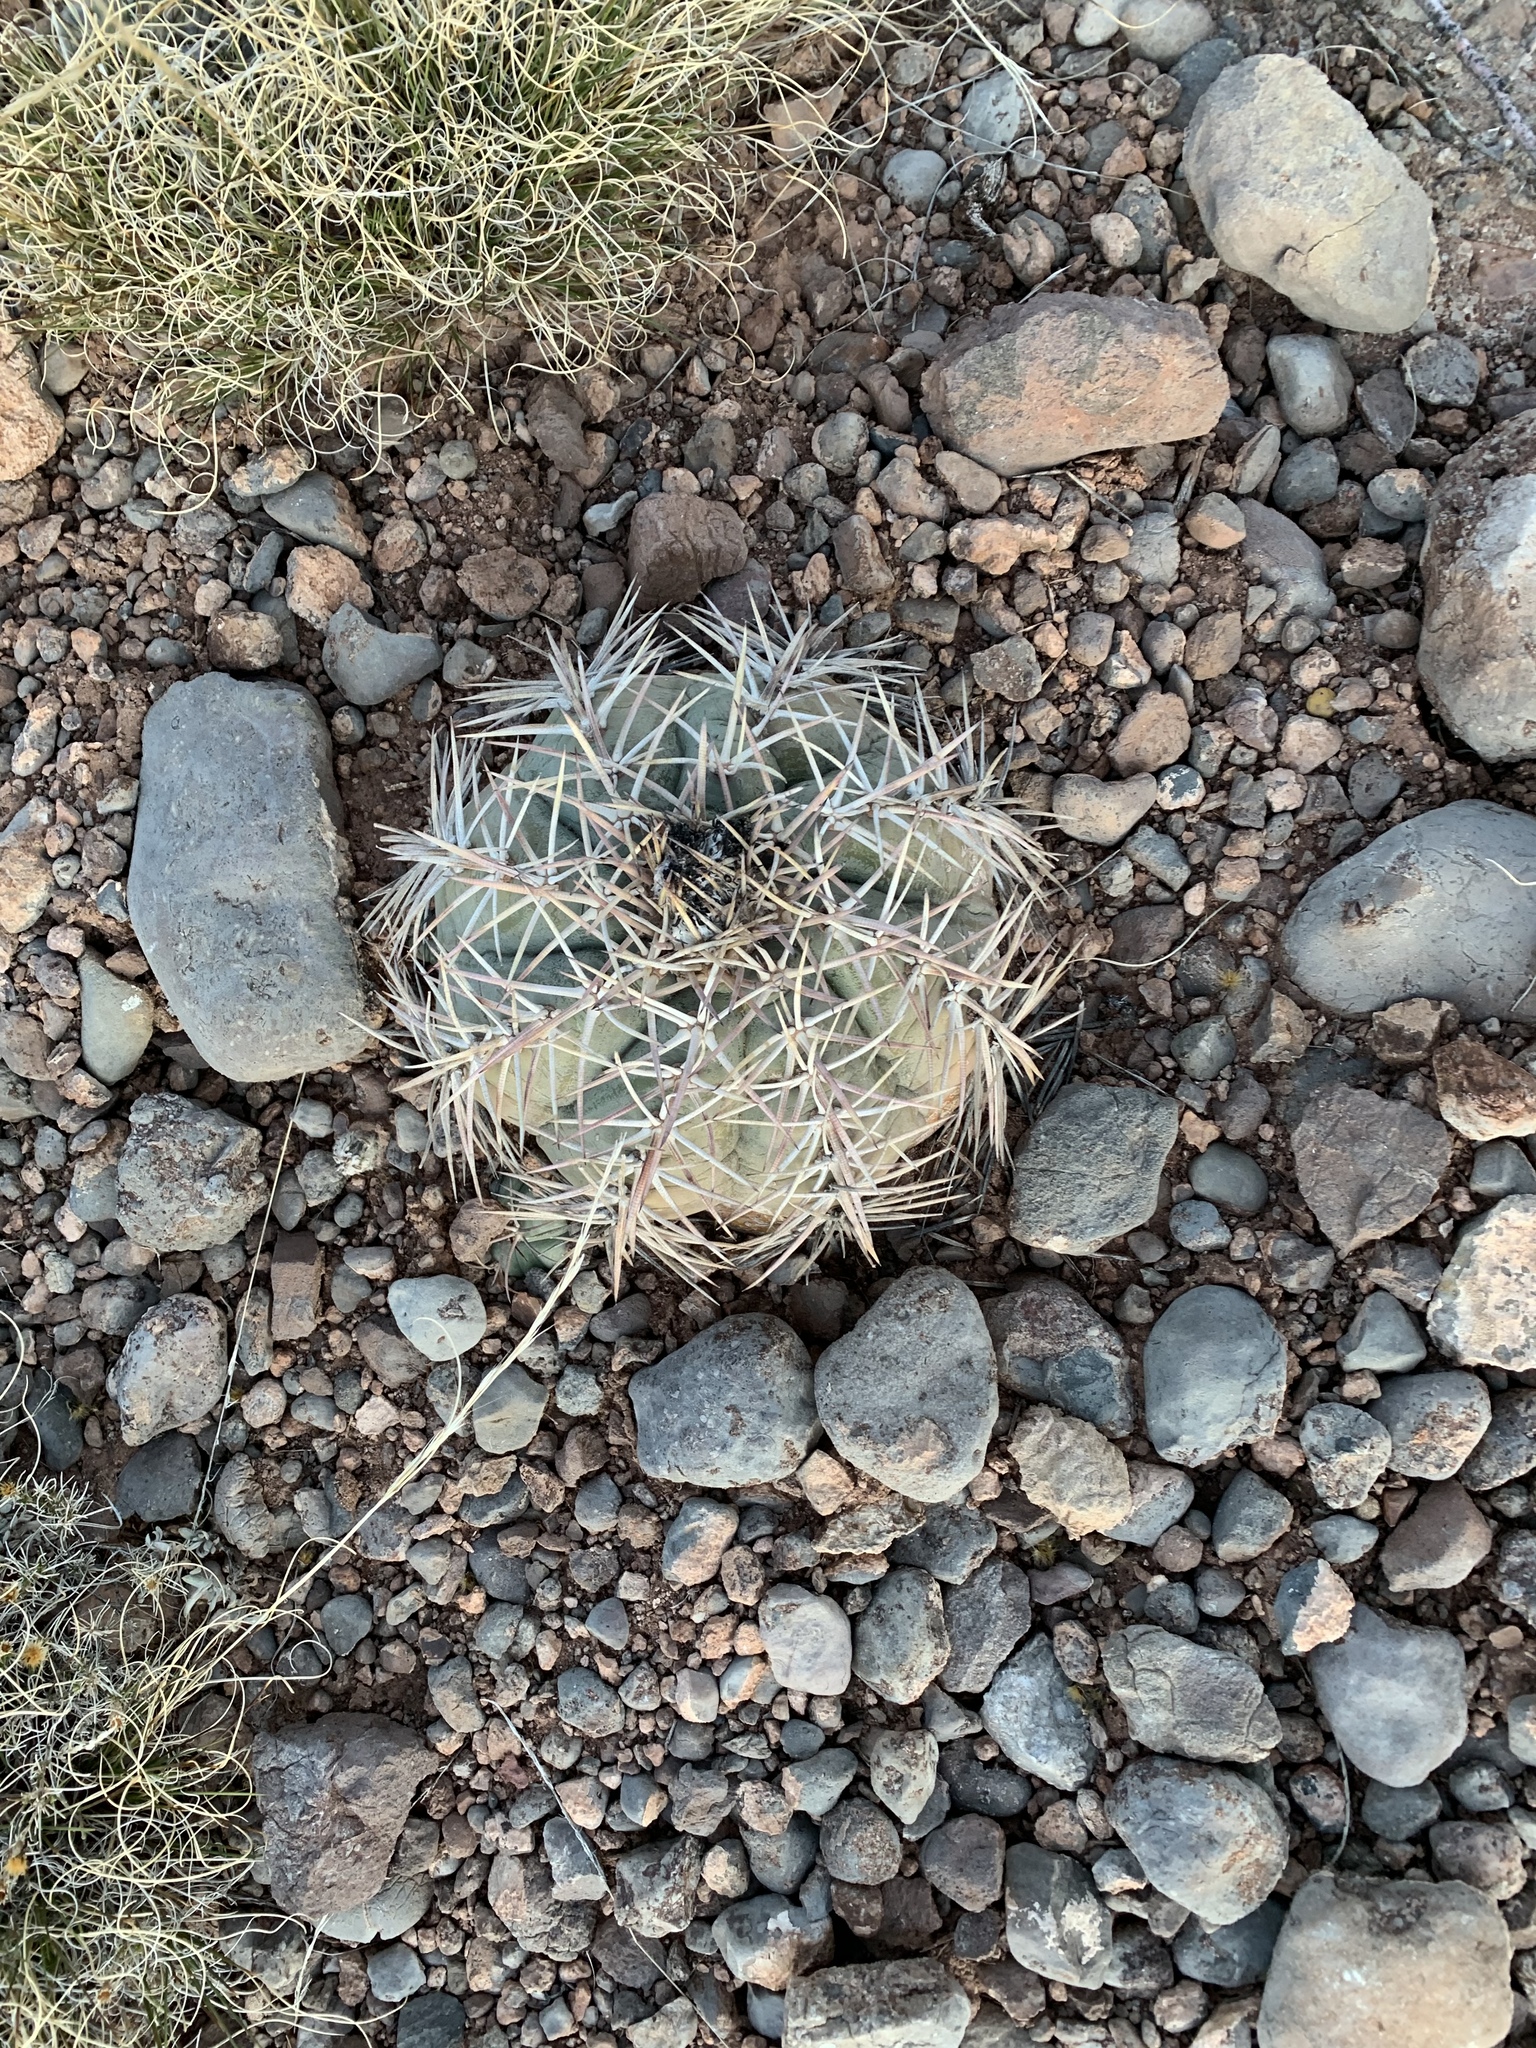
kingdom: Plantae
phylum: Tracheophyta
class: Magnoliopsida
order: Caryophyllales
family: Cactaceae
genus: Echinocactus
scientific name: Echinocactus horizonthalonius
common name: Devilshead
